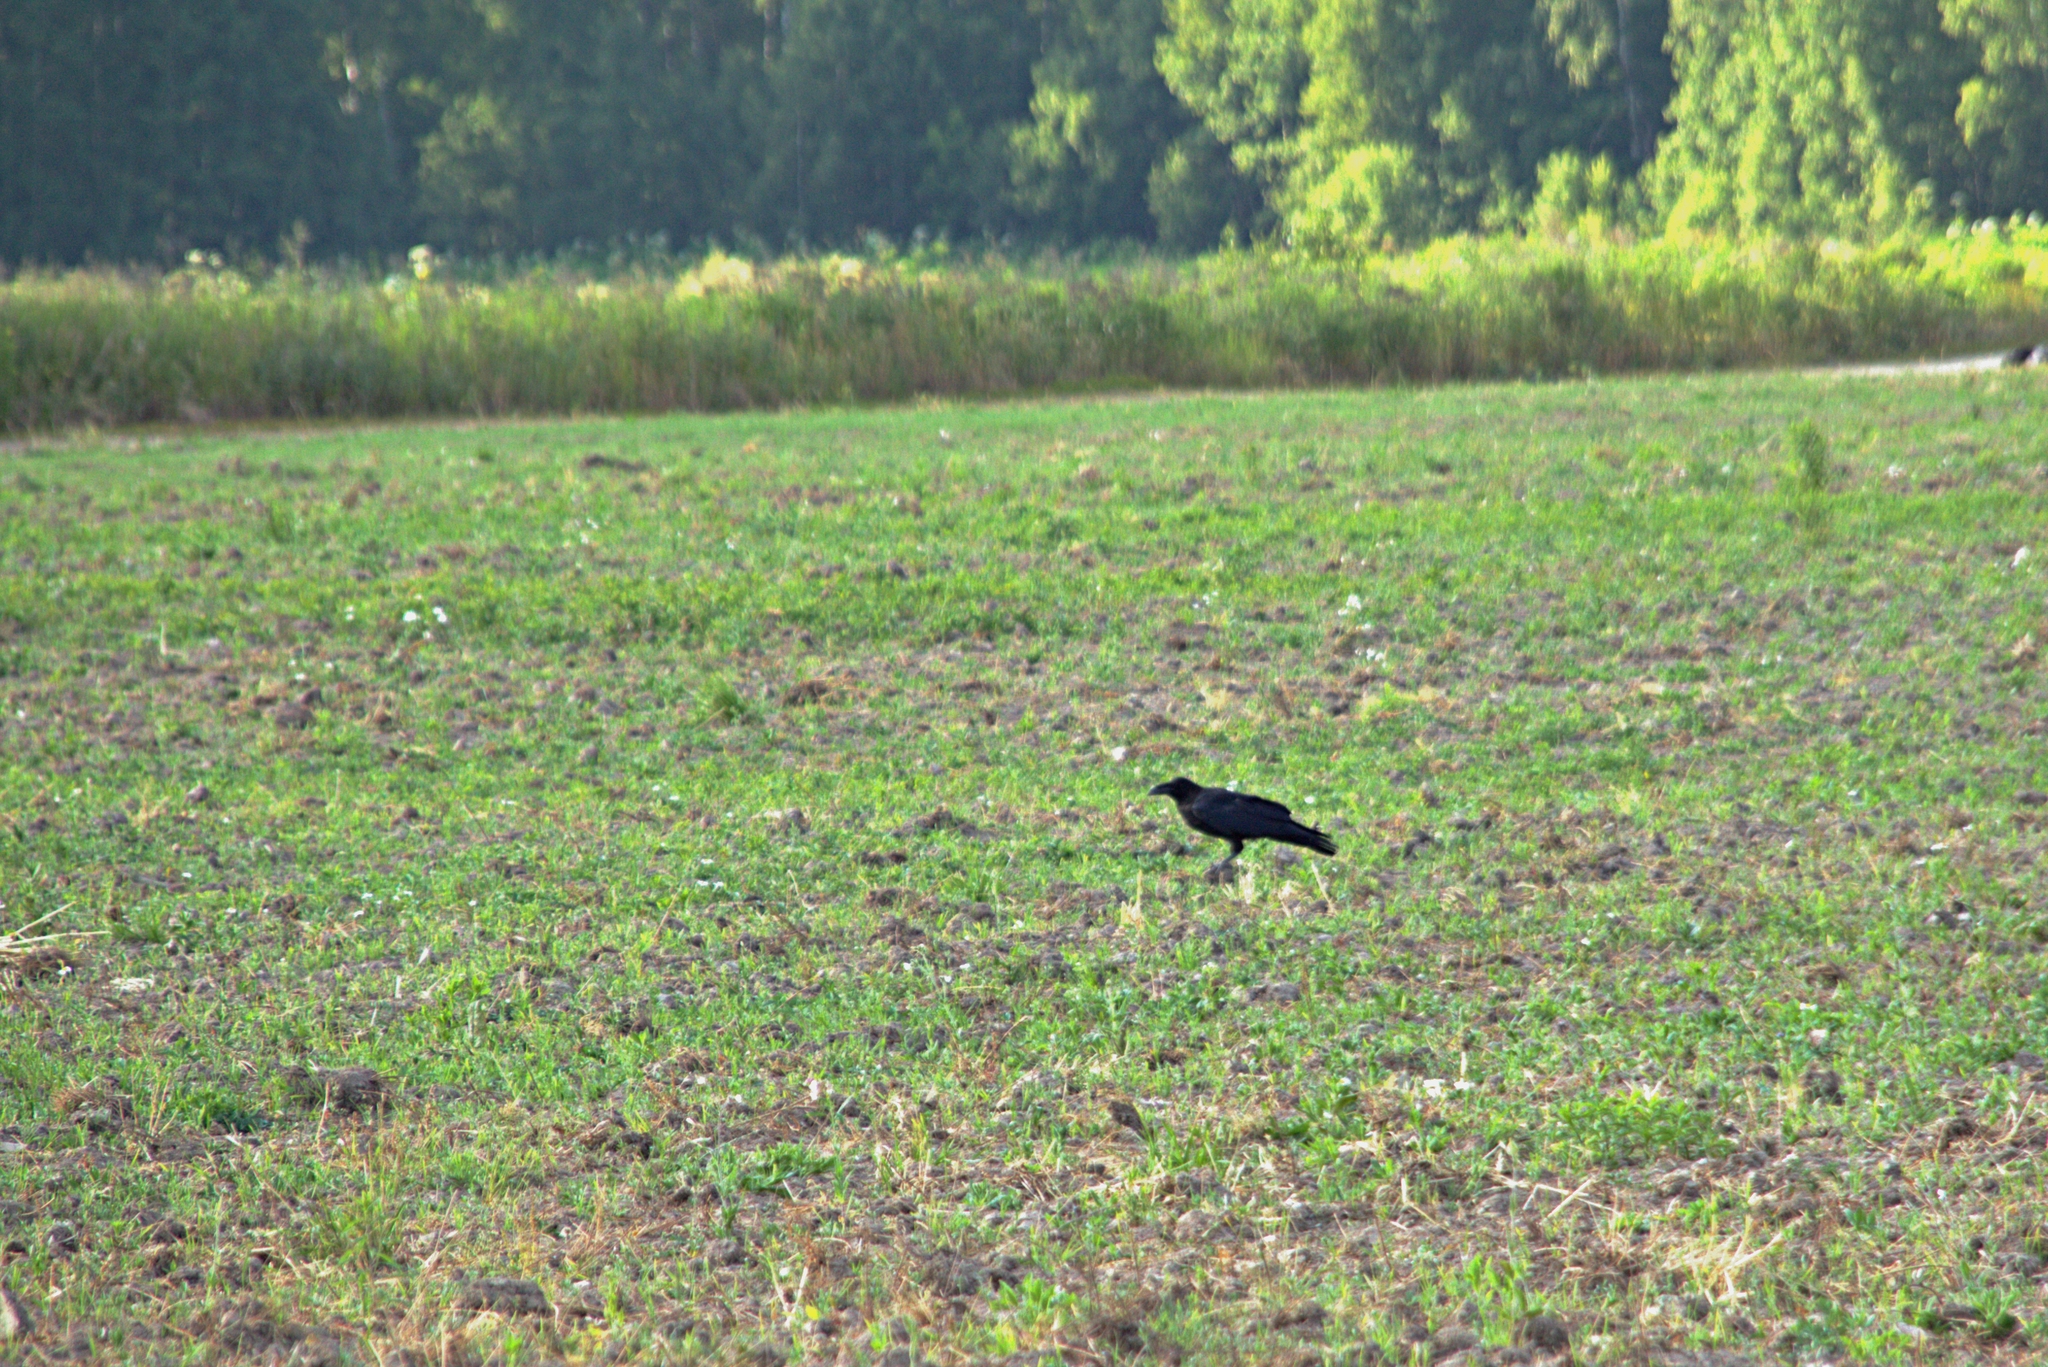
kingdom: Animalia
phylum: Chordata
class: Aves
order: Passeriformes
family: Corvidae
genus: Corvus
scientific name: Corvus corax
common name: Common raven
